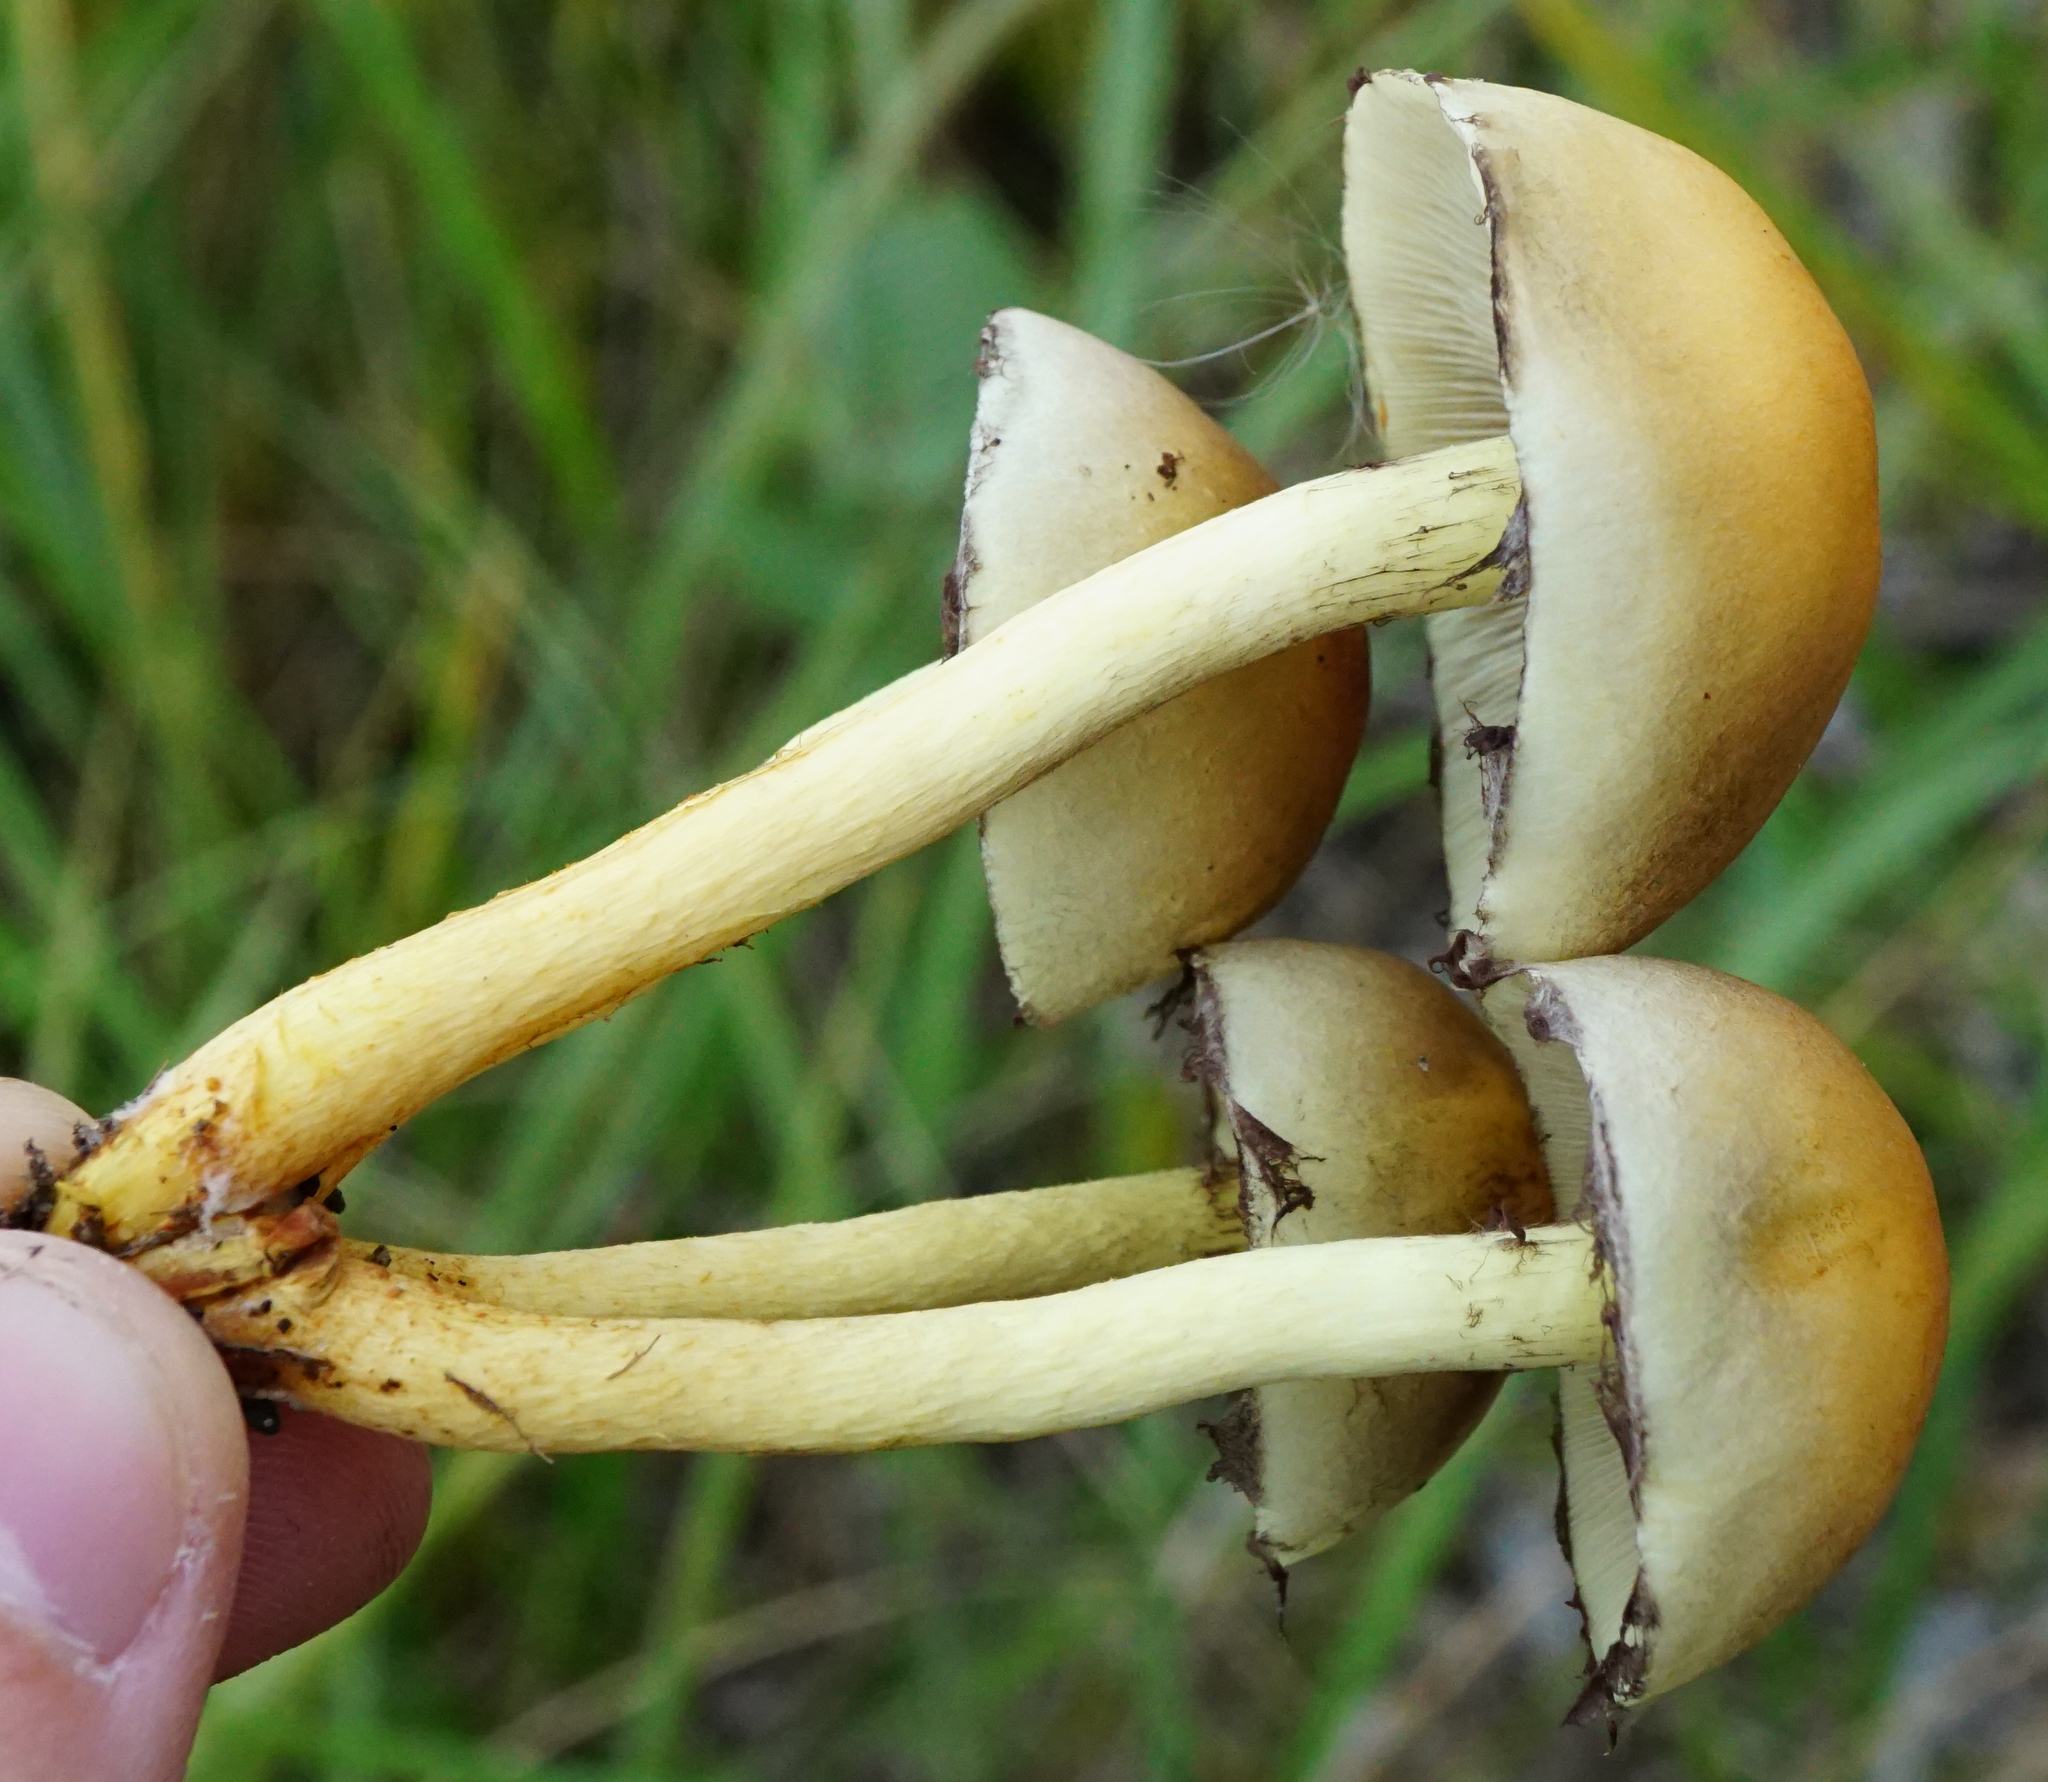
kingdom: Fungi
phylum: Basidiomycota
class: Agaricomycetes
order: Agaricales
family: Strophariaceae
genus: Hypholoma
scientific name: Hypholoma fasciculare
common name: Sulphur tuft
